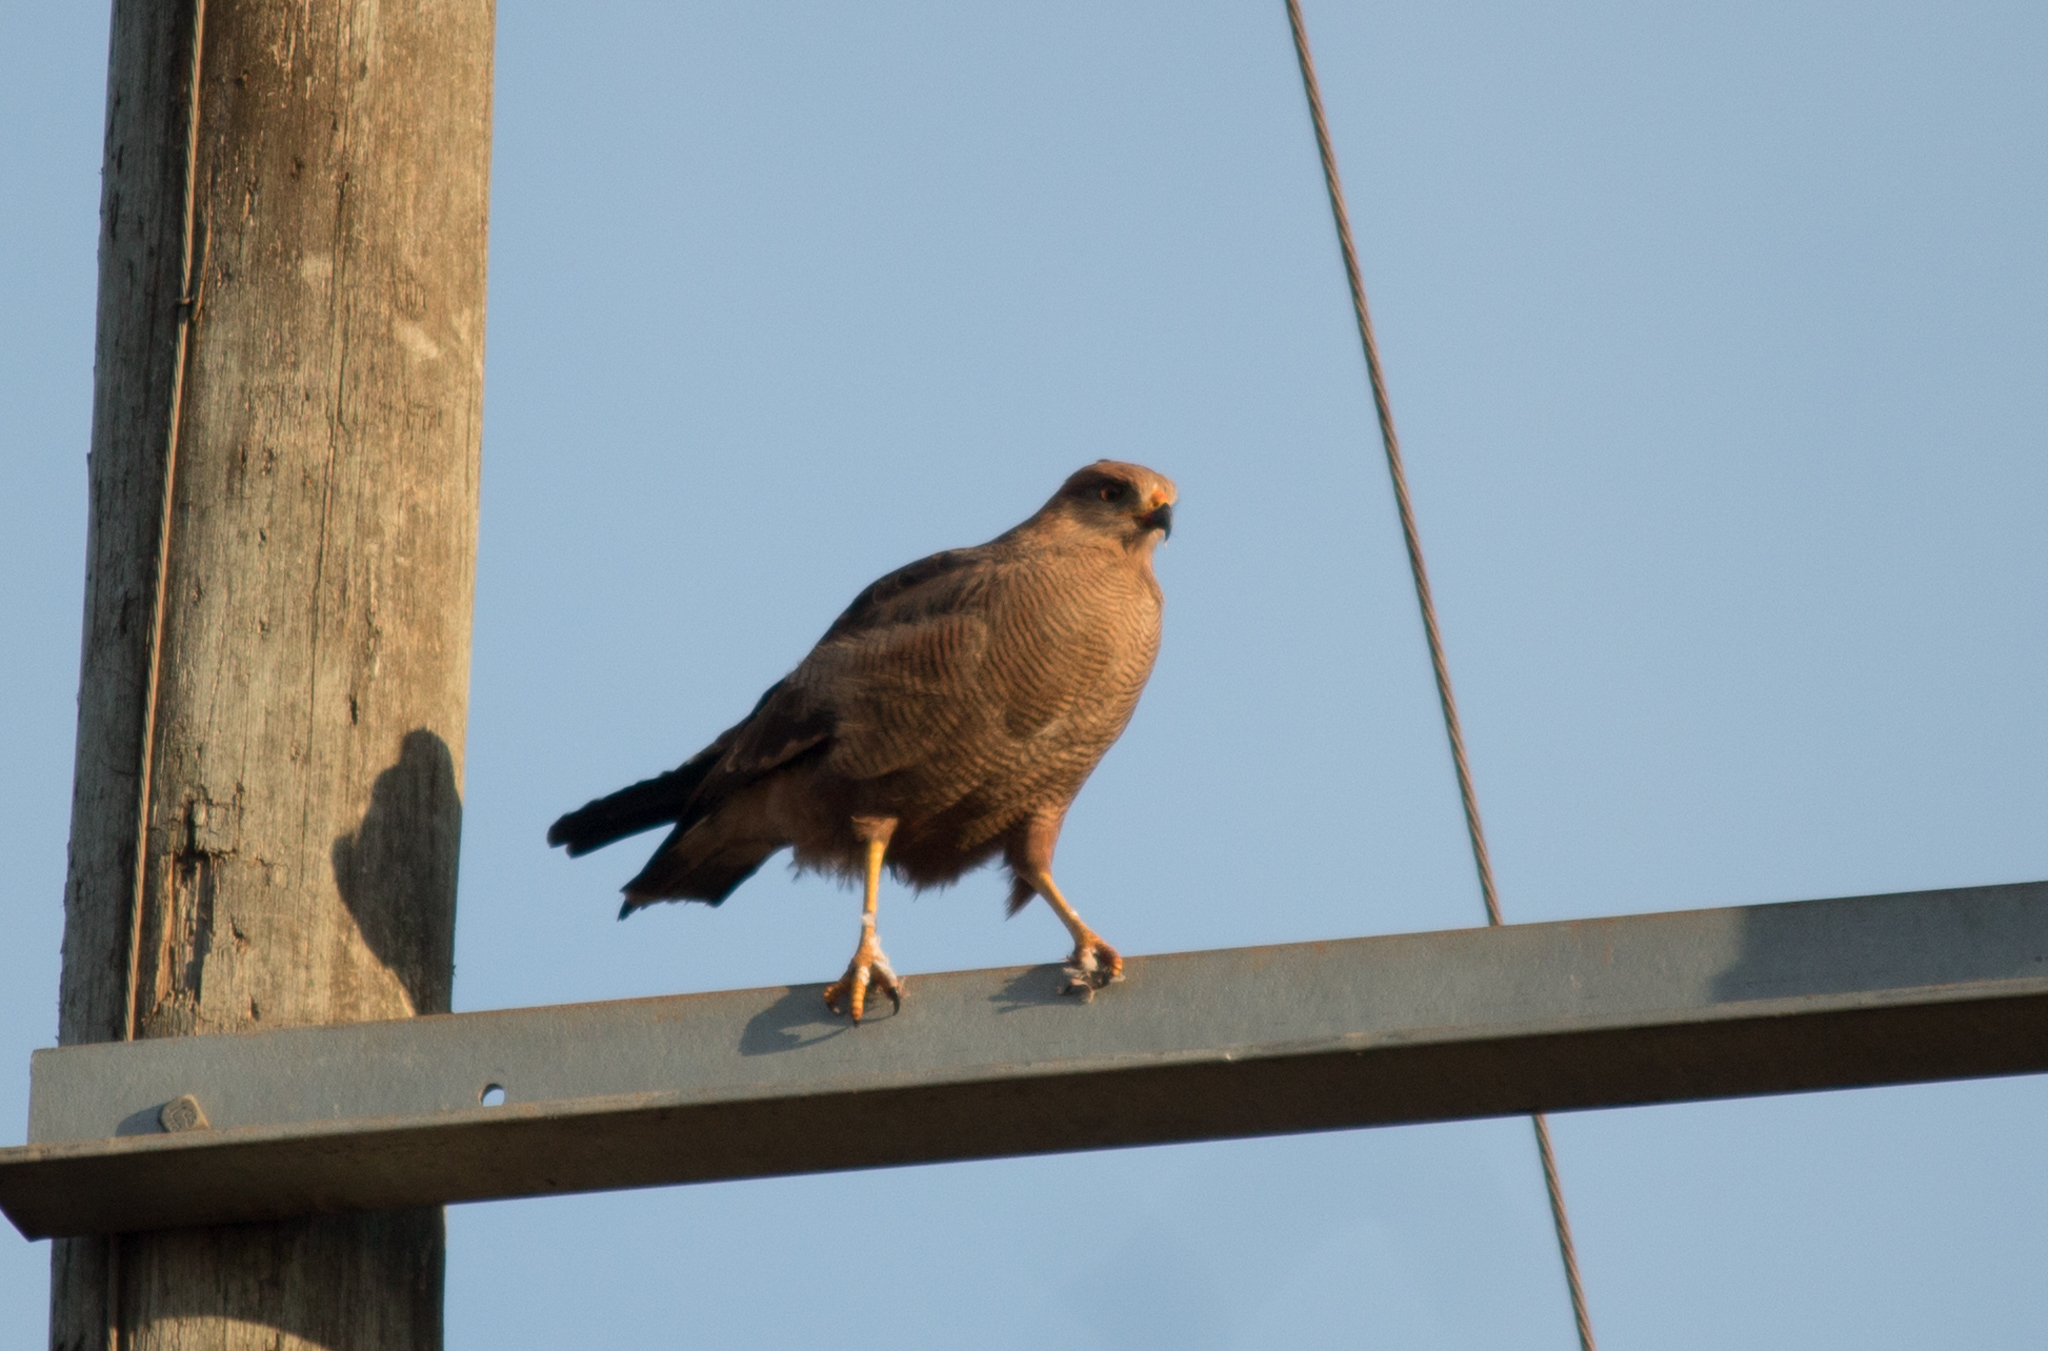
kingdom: Animalia
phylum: Chordata
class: Aves
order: Accipitriformes
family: Accipitridae
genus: Buteogallus
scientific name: Buteogallus meridionalis
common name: Savanna hawk
